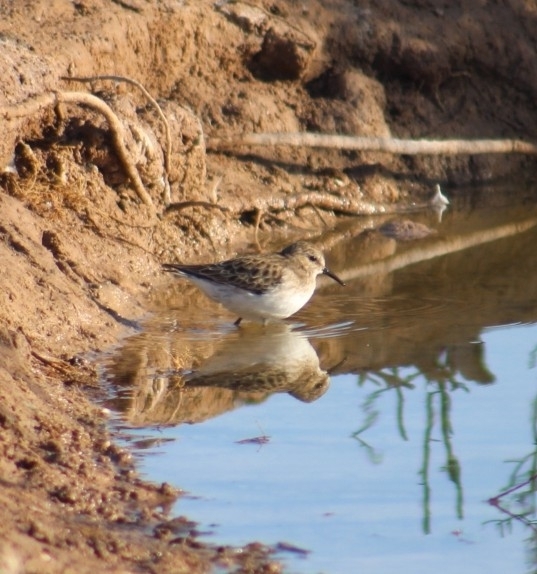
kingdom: Animalia
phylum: Chordata
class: Aves
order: Charadriiformes
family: Scolopacidae
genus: Calidris
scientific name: Calidris minutilla
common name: Least sandpiper
